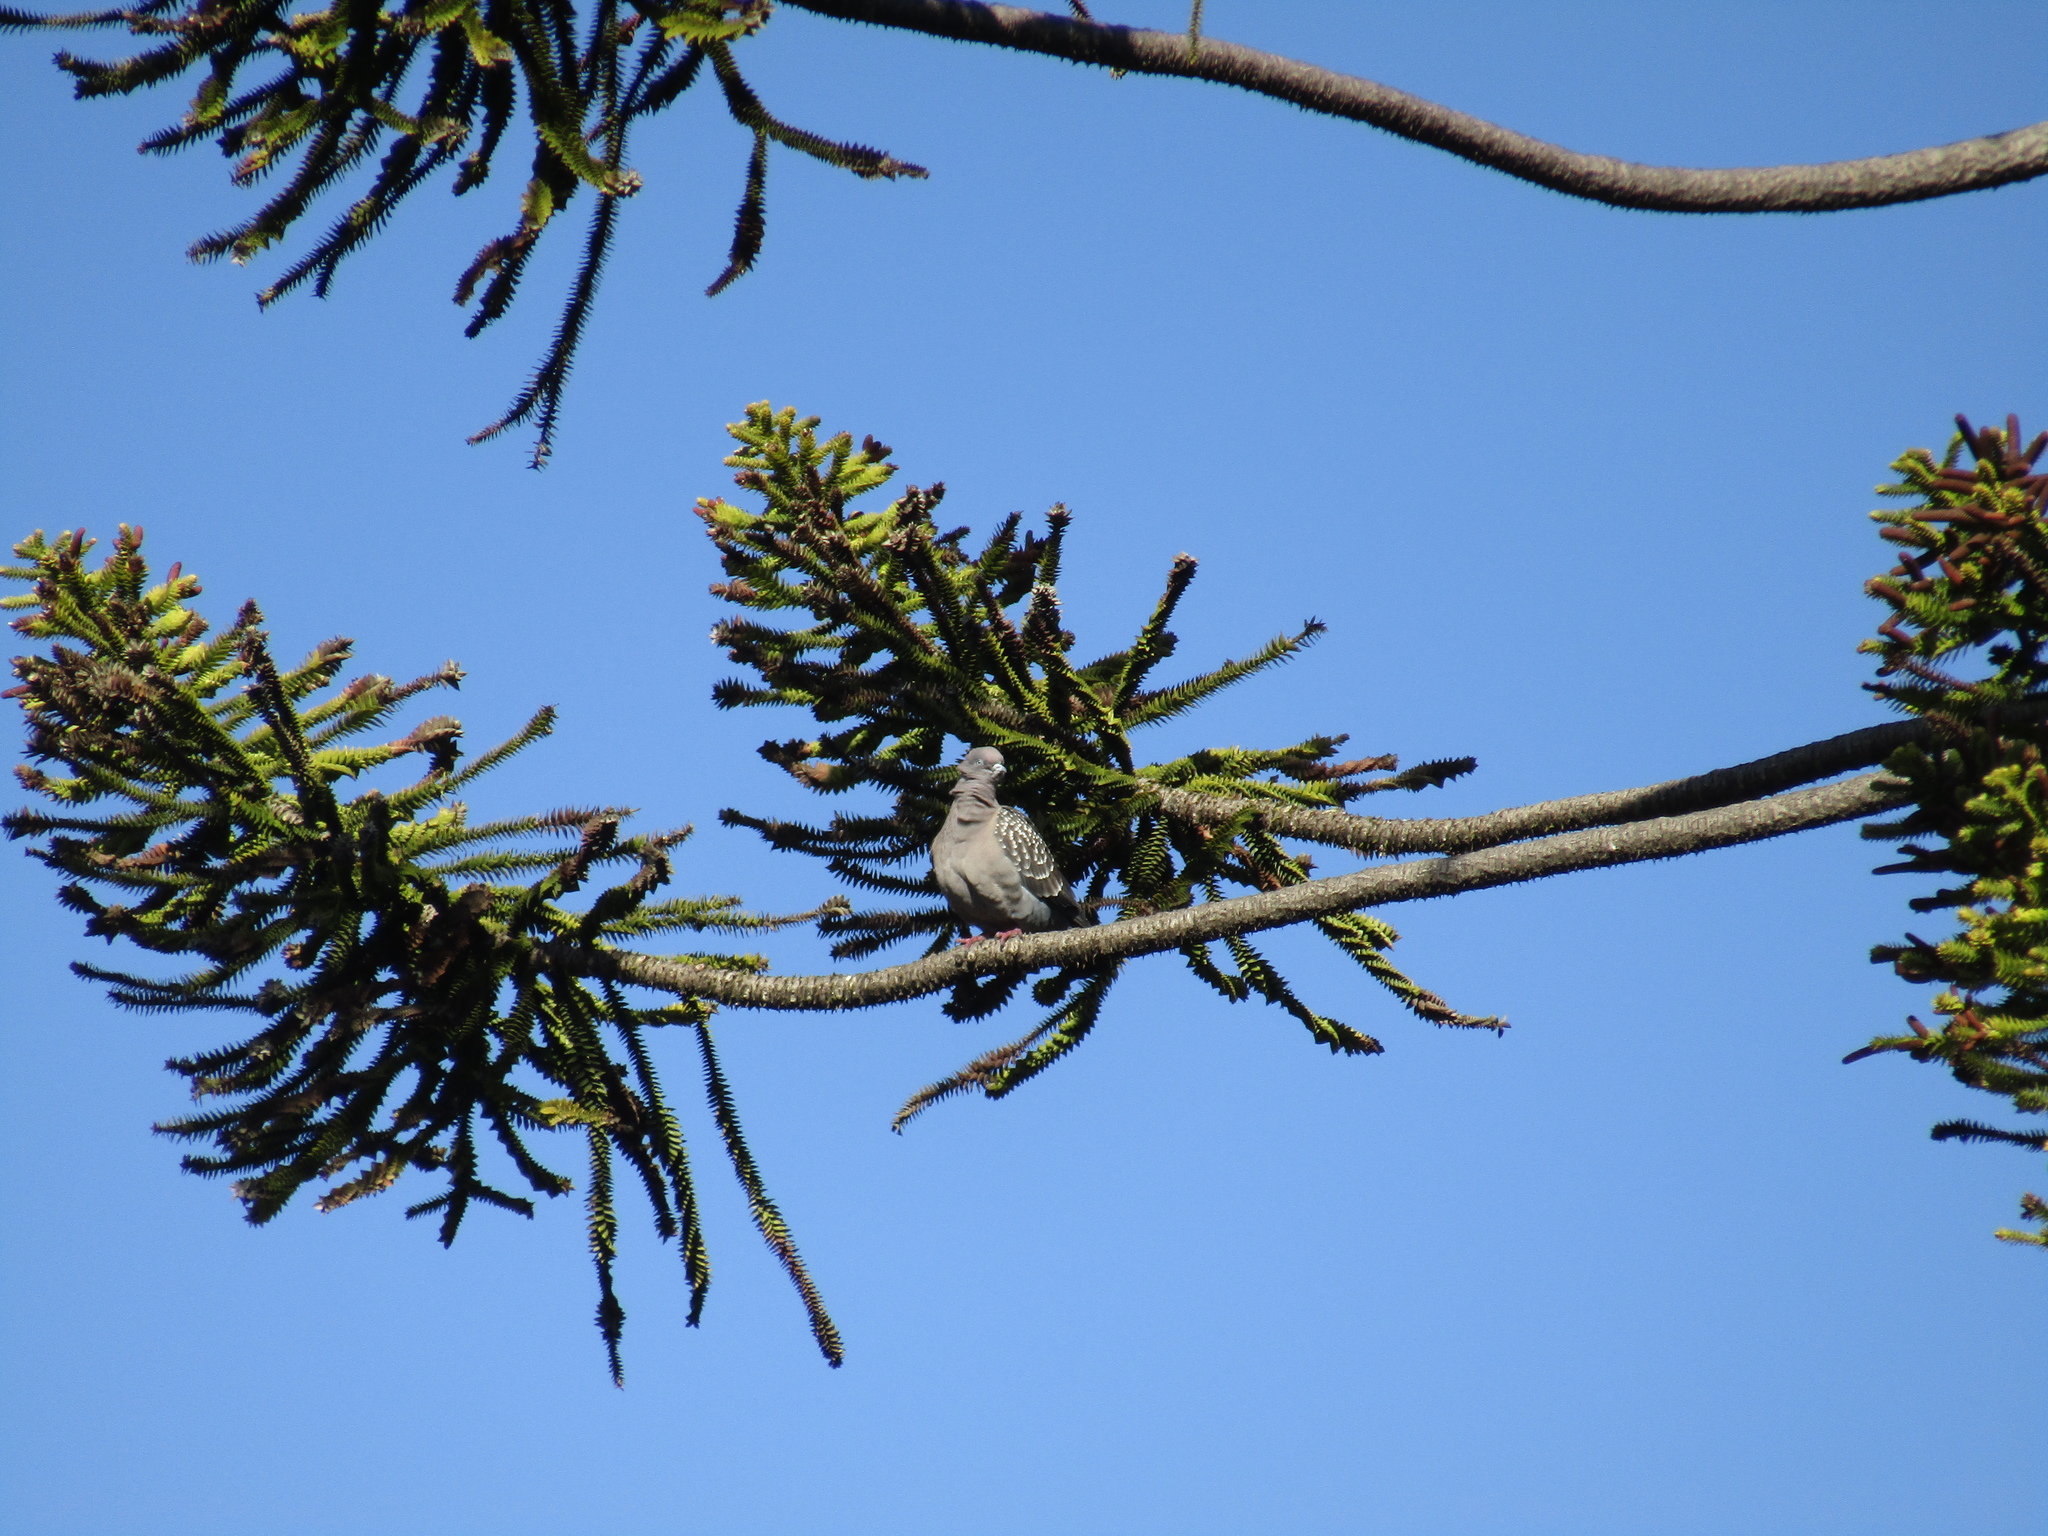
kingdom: Animalia
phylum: Chordata
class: Aves
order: Columbiformes
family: Columbidae
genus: Patagioenas
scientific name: Patagioenas maculosa
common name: Spot-winged pigeon
